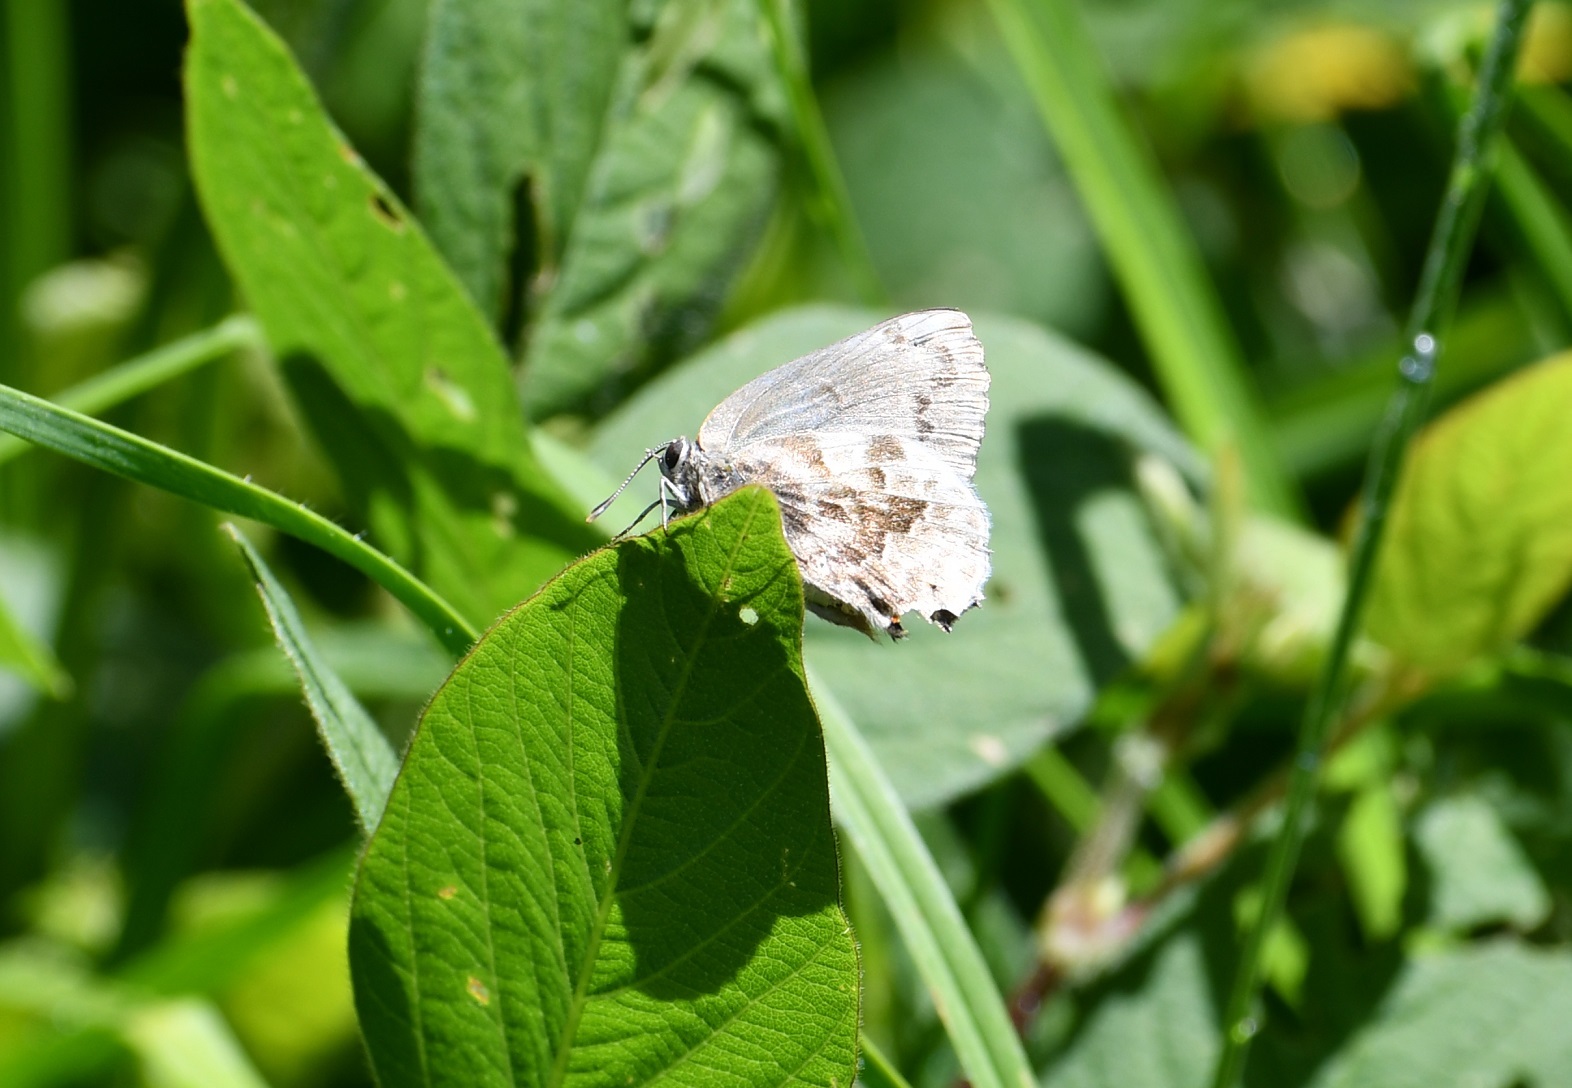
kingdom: Animalia
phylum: Arthropoda
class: Insecta
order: Lepidoptera
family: Lycaenidae
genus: Michaelus
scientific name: Michaelus jebus
